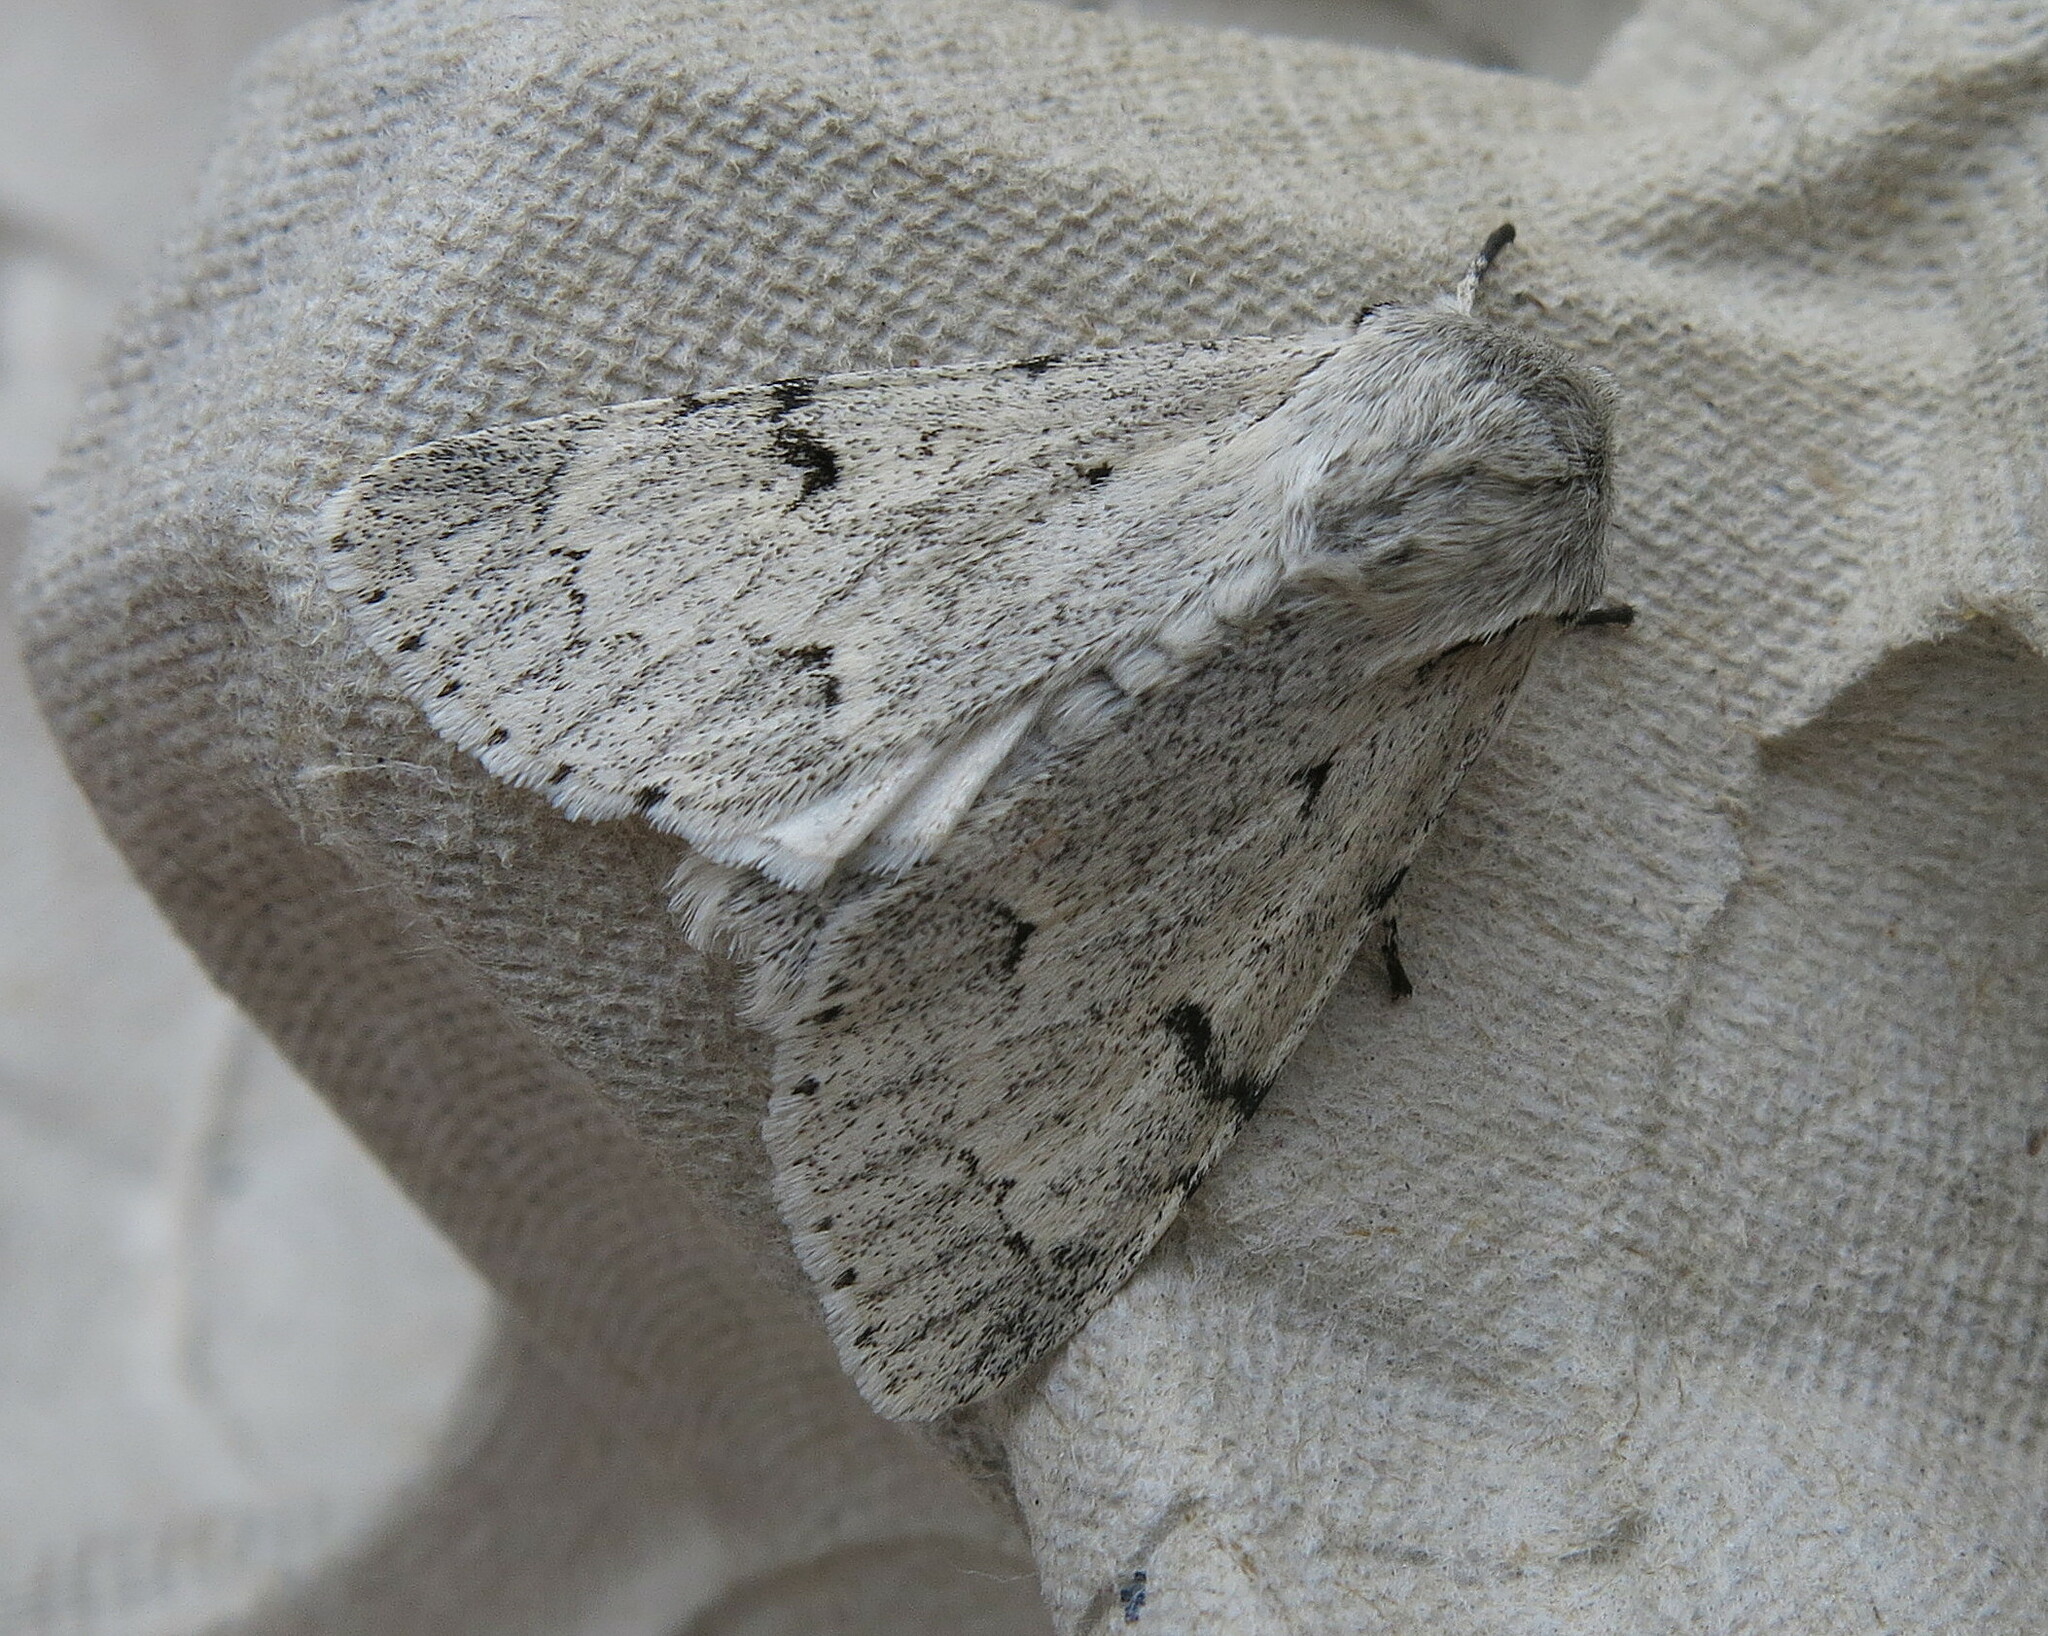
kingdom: Animalia
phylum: Arthropoda
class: Insecta
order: Lepidoptera
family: Noctuidae
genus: Acronicta
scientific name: Acronicta leporina
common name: Miller
